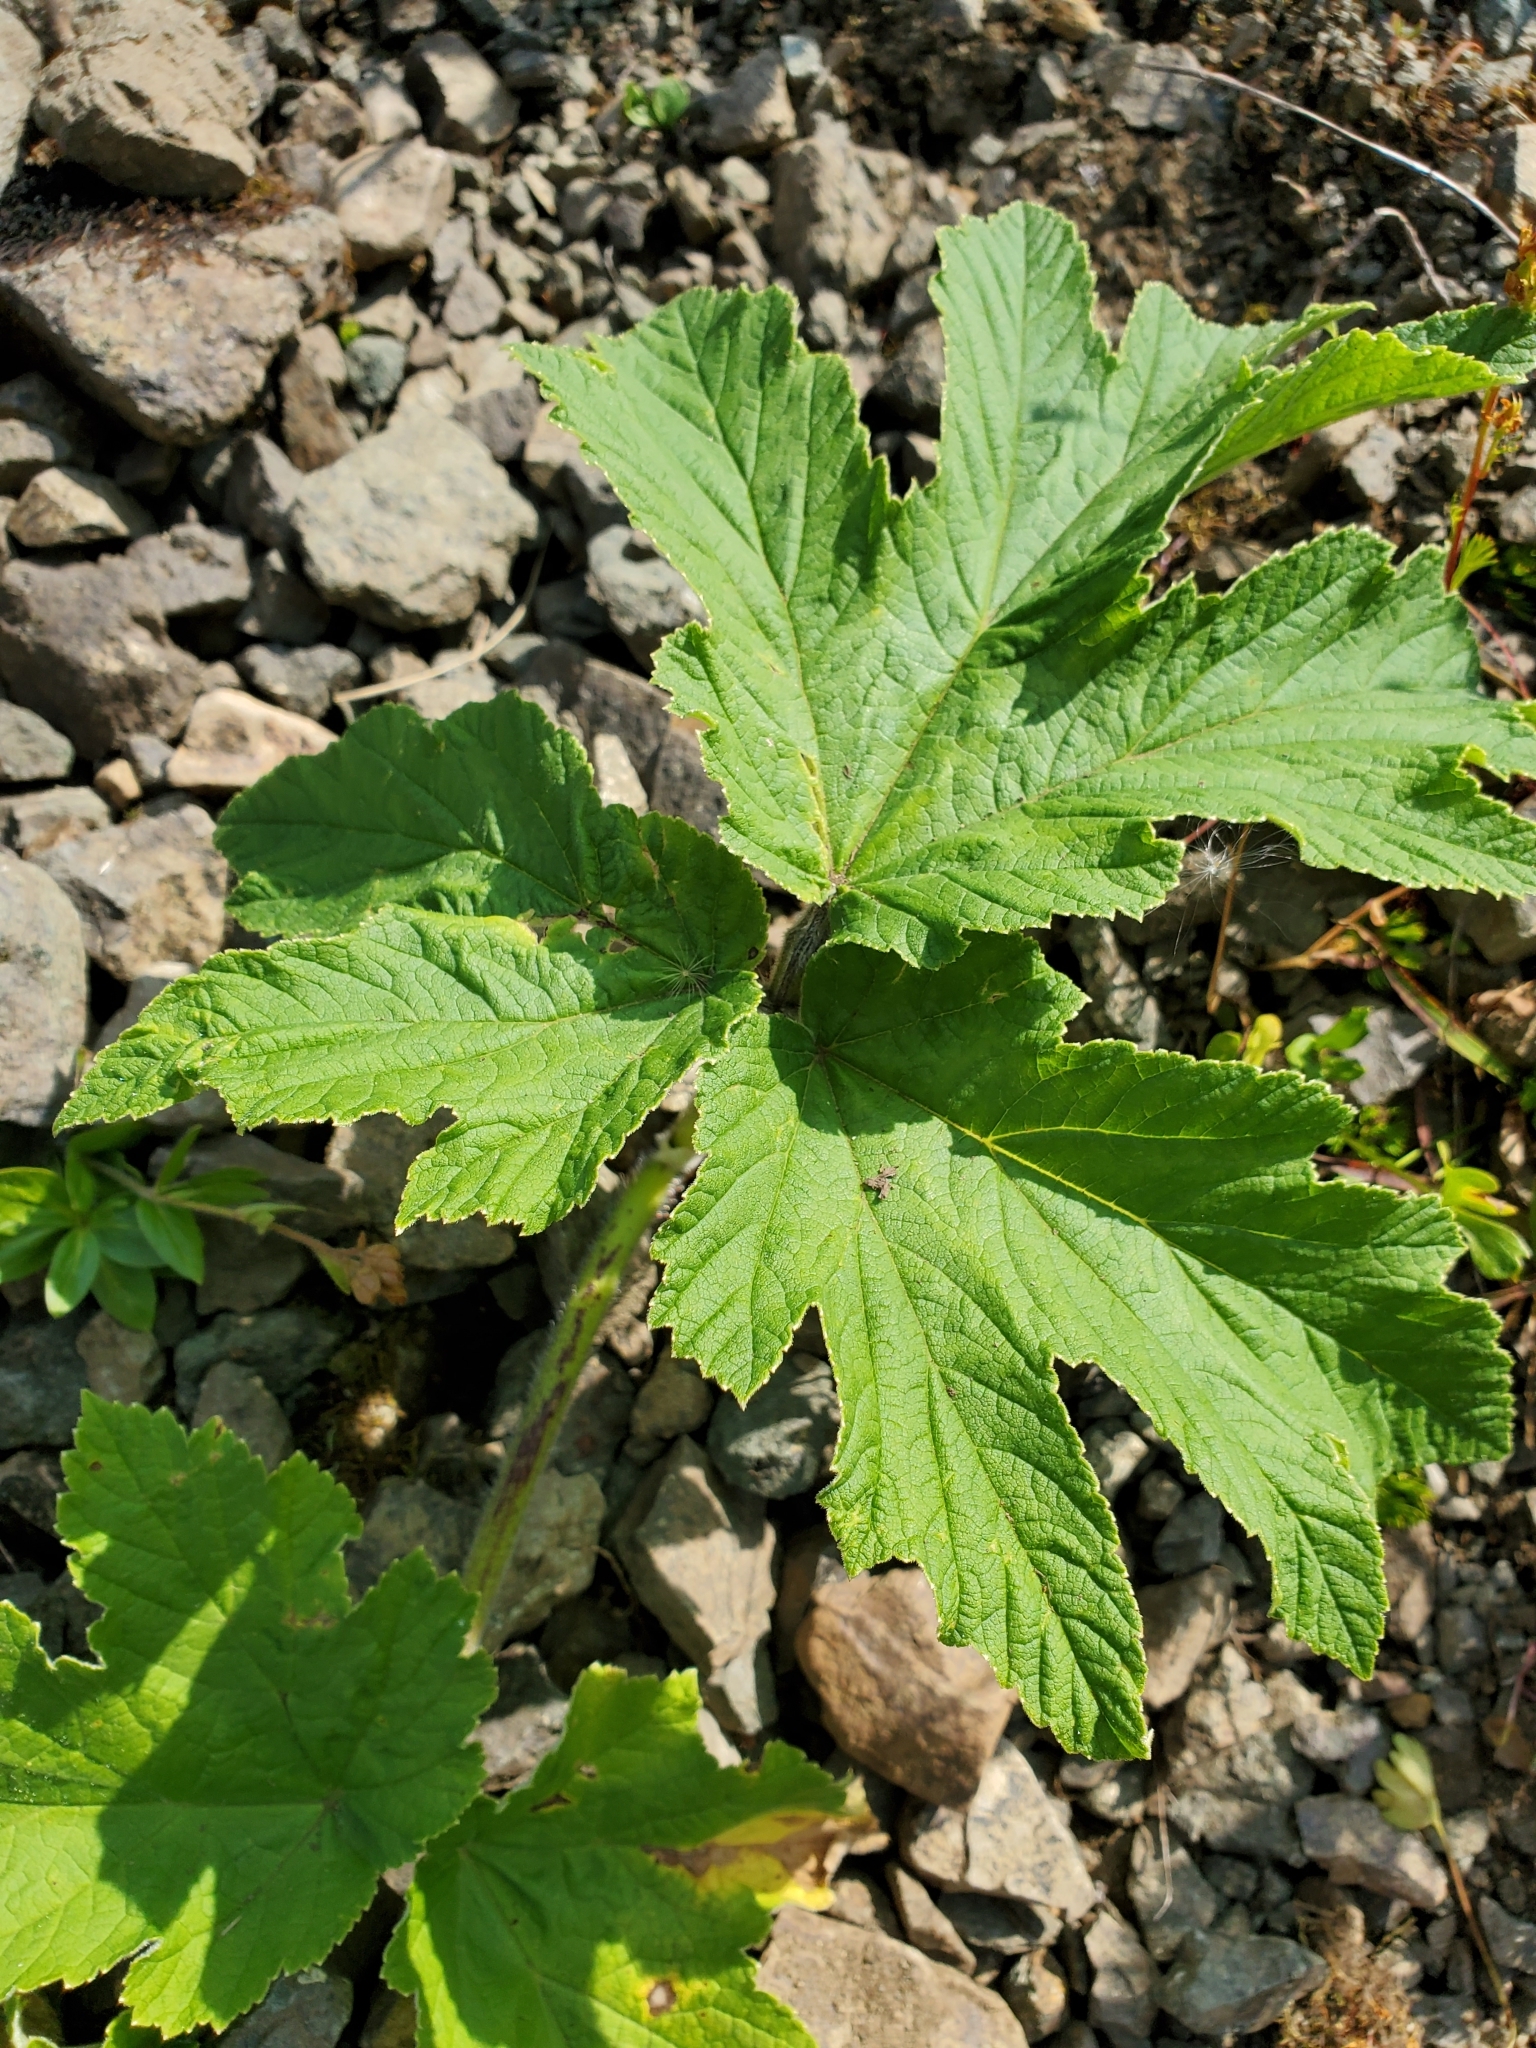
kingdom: Plantae
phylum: Tracheophyta
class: Magnoliopsida
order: Apiales
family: Apiaceae
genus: Heracleum
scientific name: Heracleum maximum
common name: American cow parsnip
